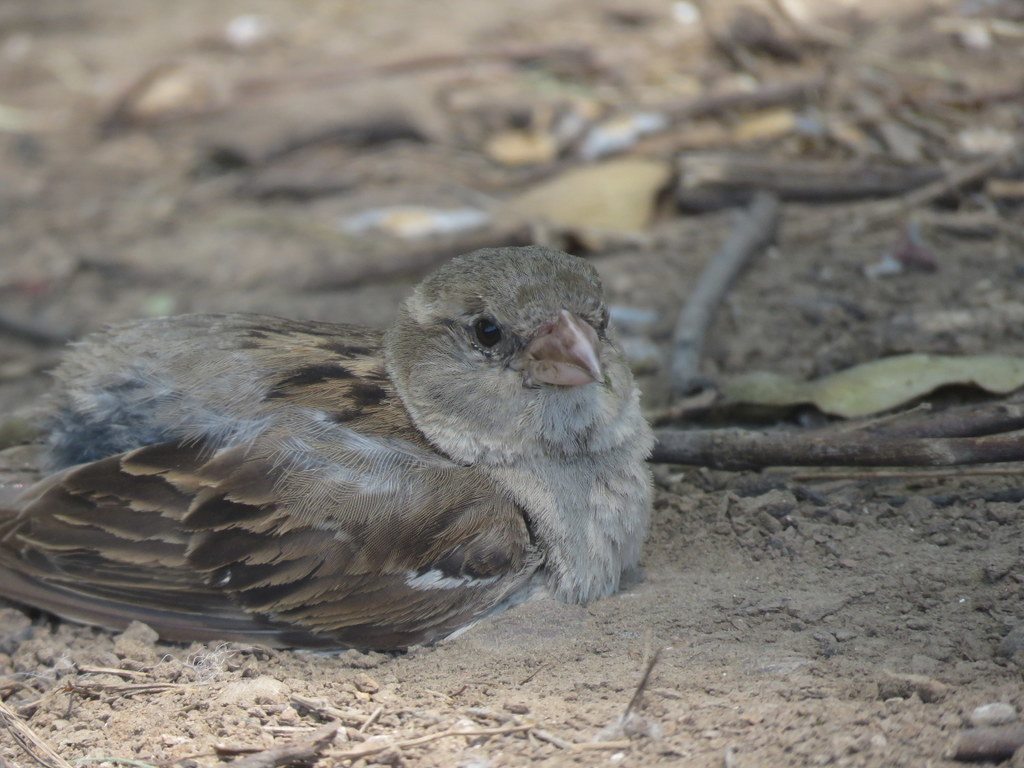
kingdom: Animalia
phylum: Chordata
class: Aves
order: Passeriformes
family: Passeridae
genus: Passer
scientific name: Passer domesticus
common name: House sparrow
